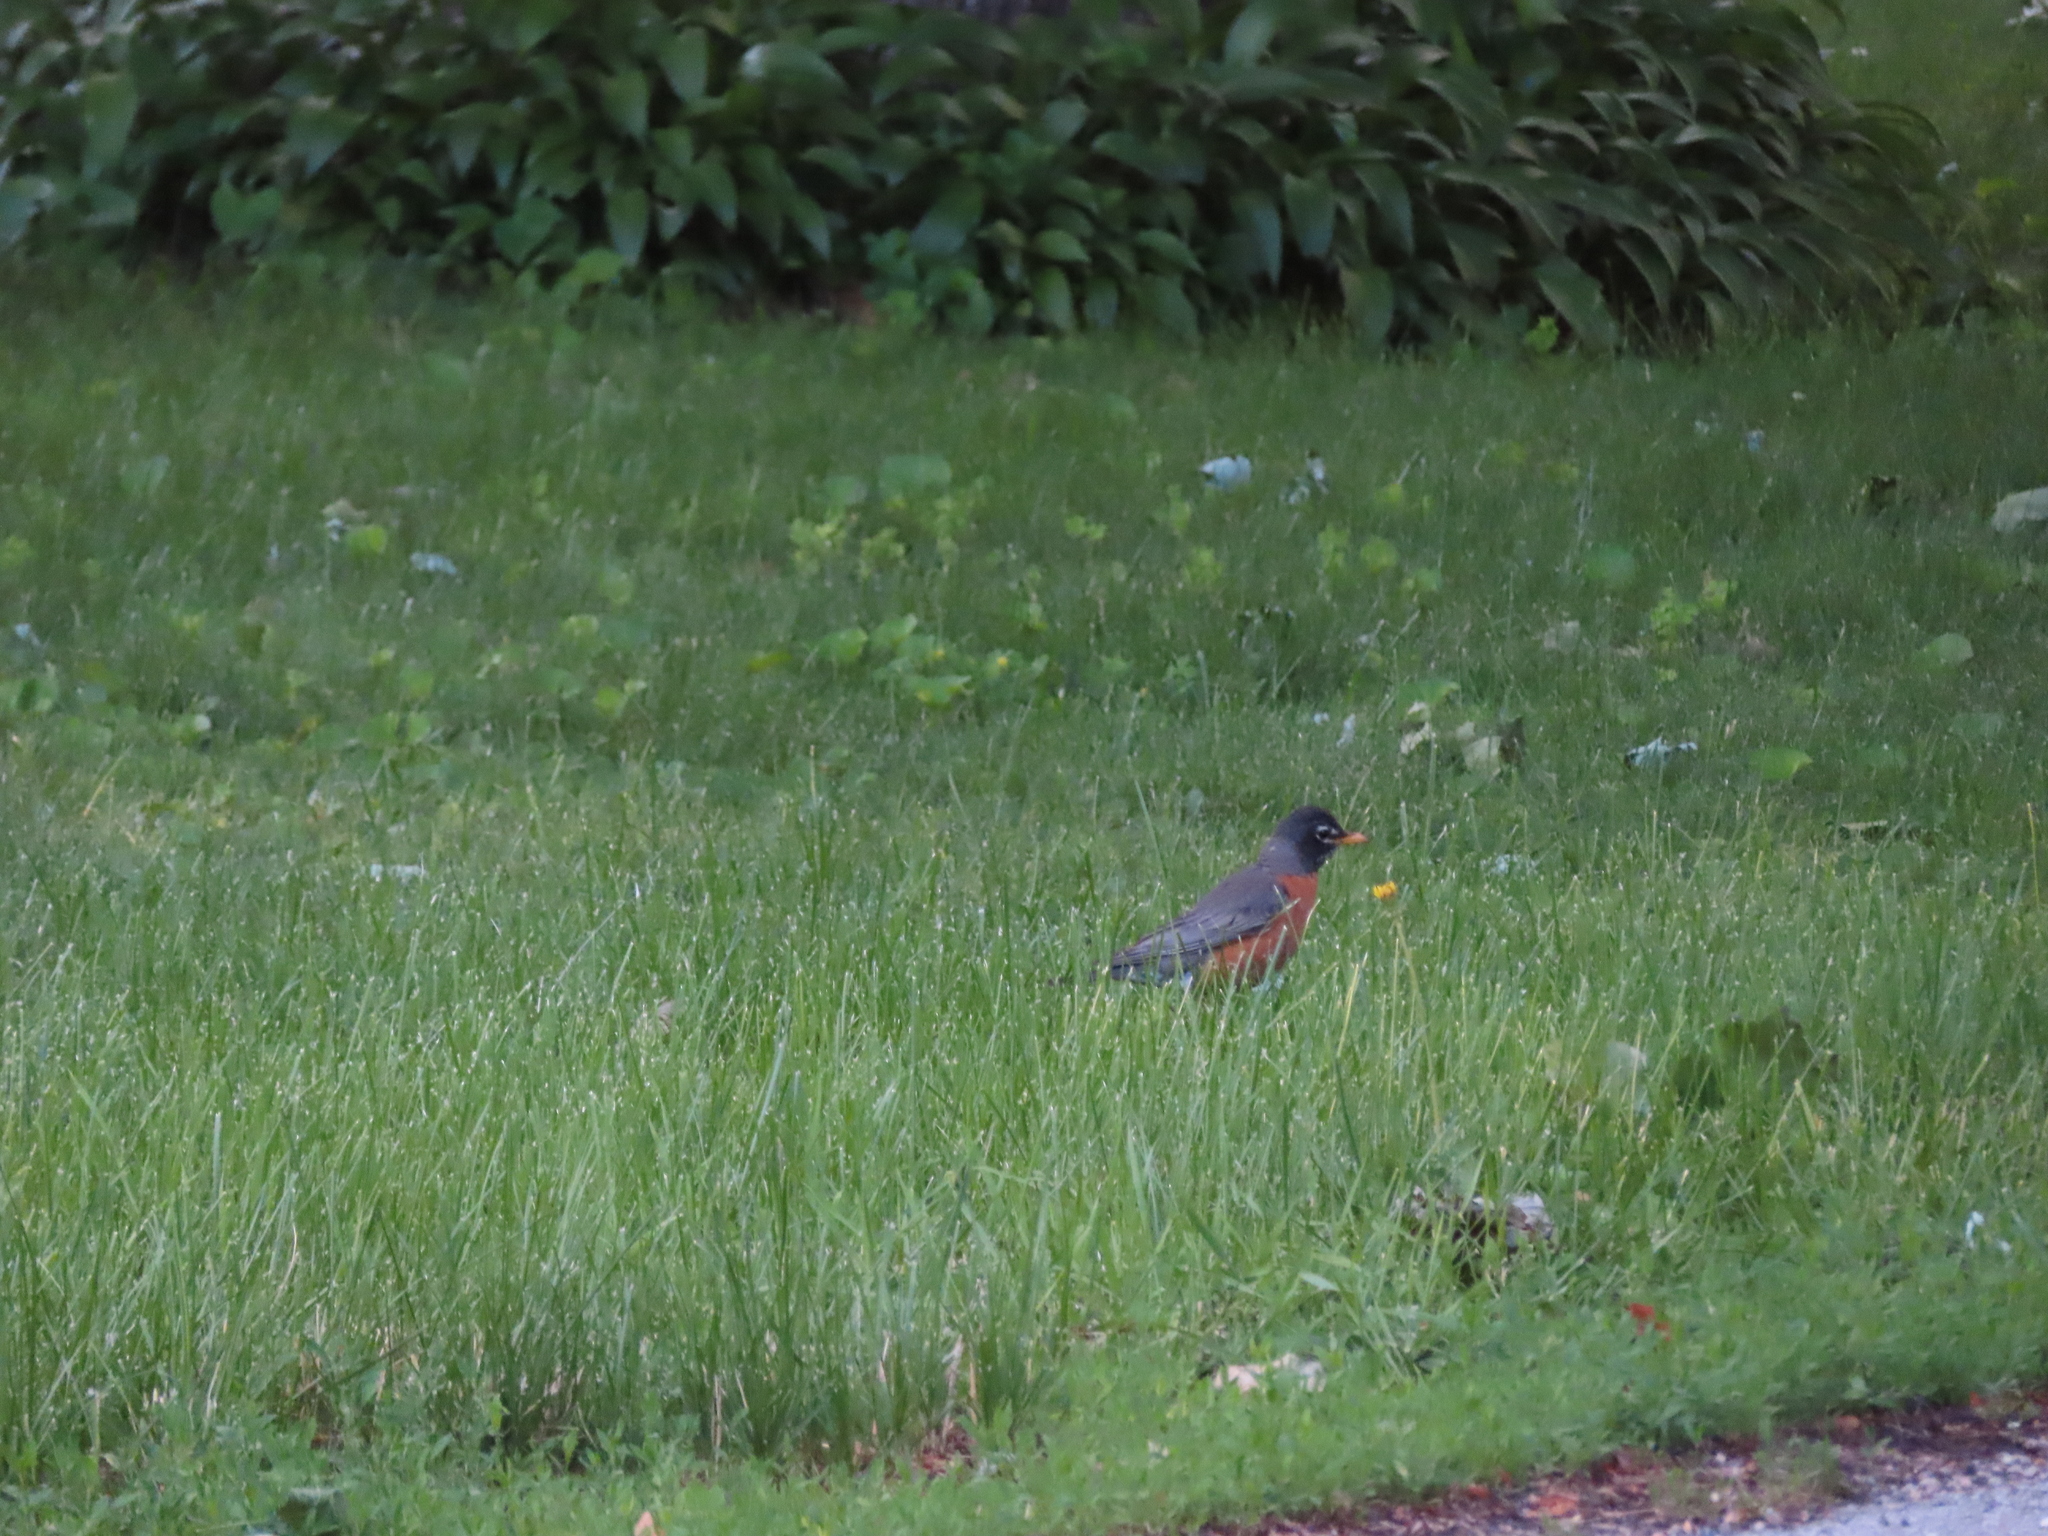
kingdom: Animalia
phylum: Chordata
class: Aves
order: Passeriformes
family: Turdidae
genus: Turdus
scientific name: Turdus migratorius
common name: American robin
